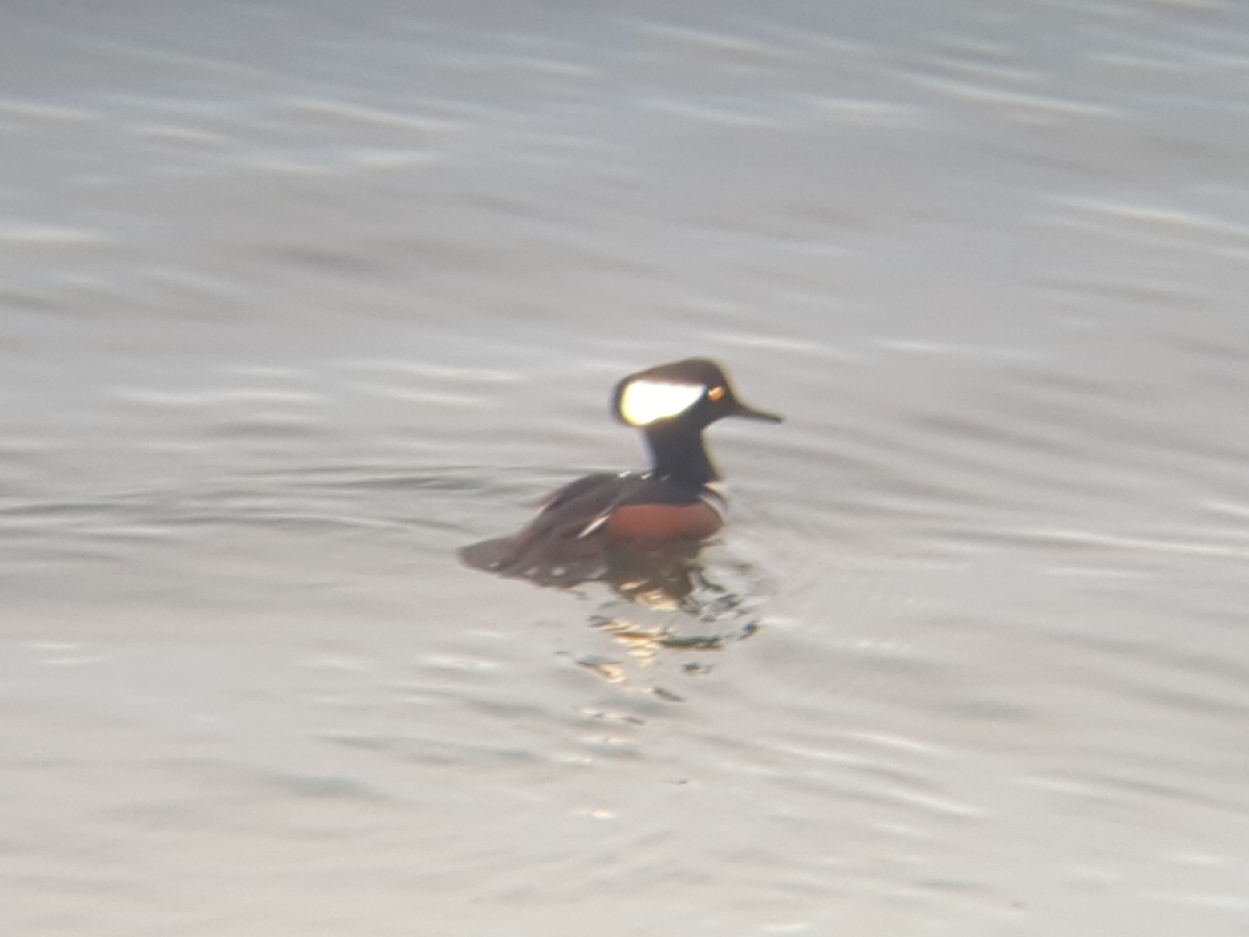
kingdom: Animalia
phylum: Chordata
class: Aves
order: Anseriformes
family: Anatidae
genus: Lophodytes
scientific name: Lophodytes cucullatus
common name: Hooded merganser
